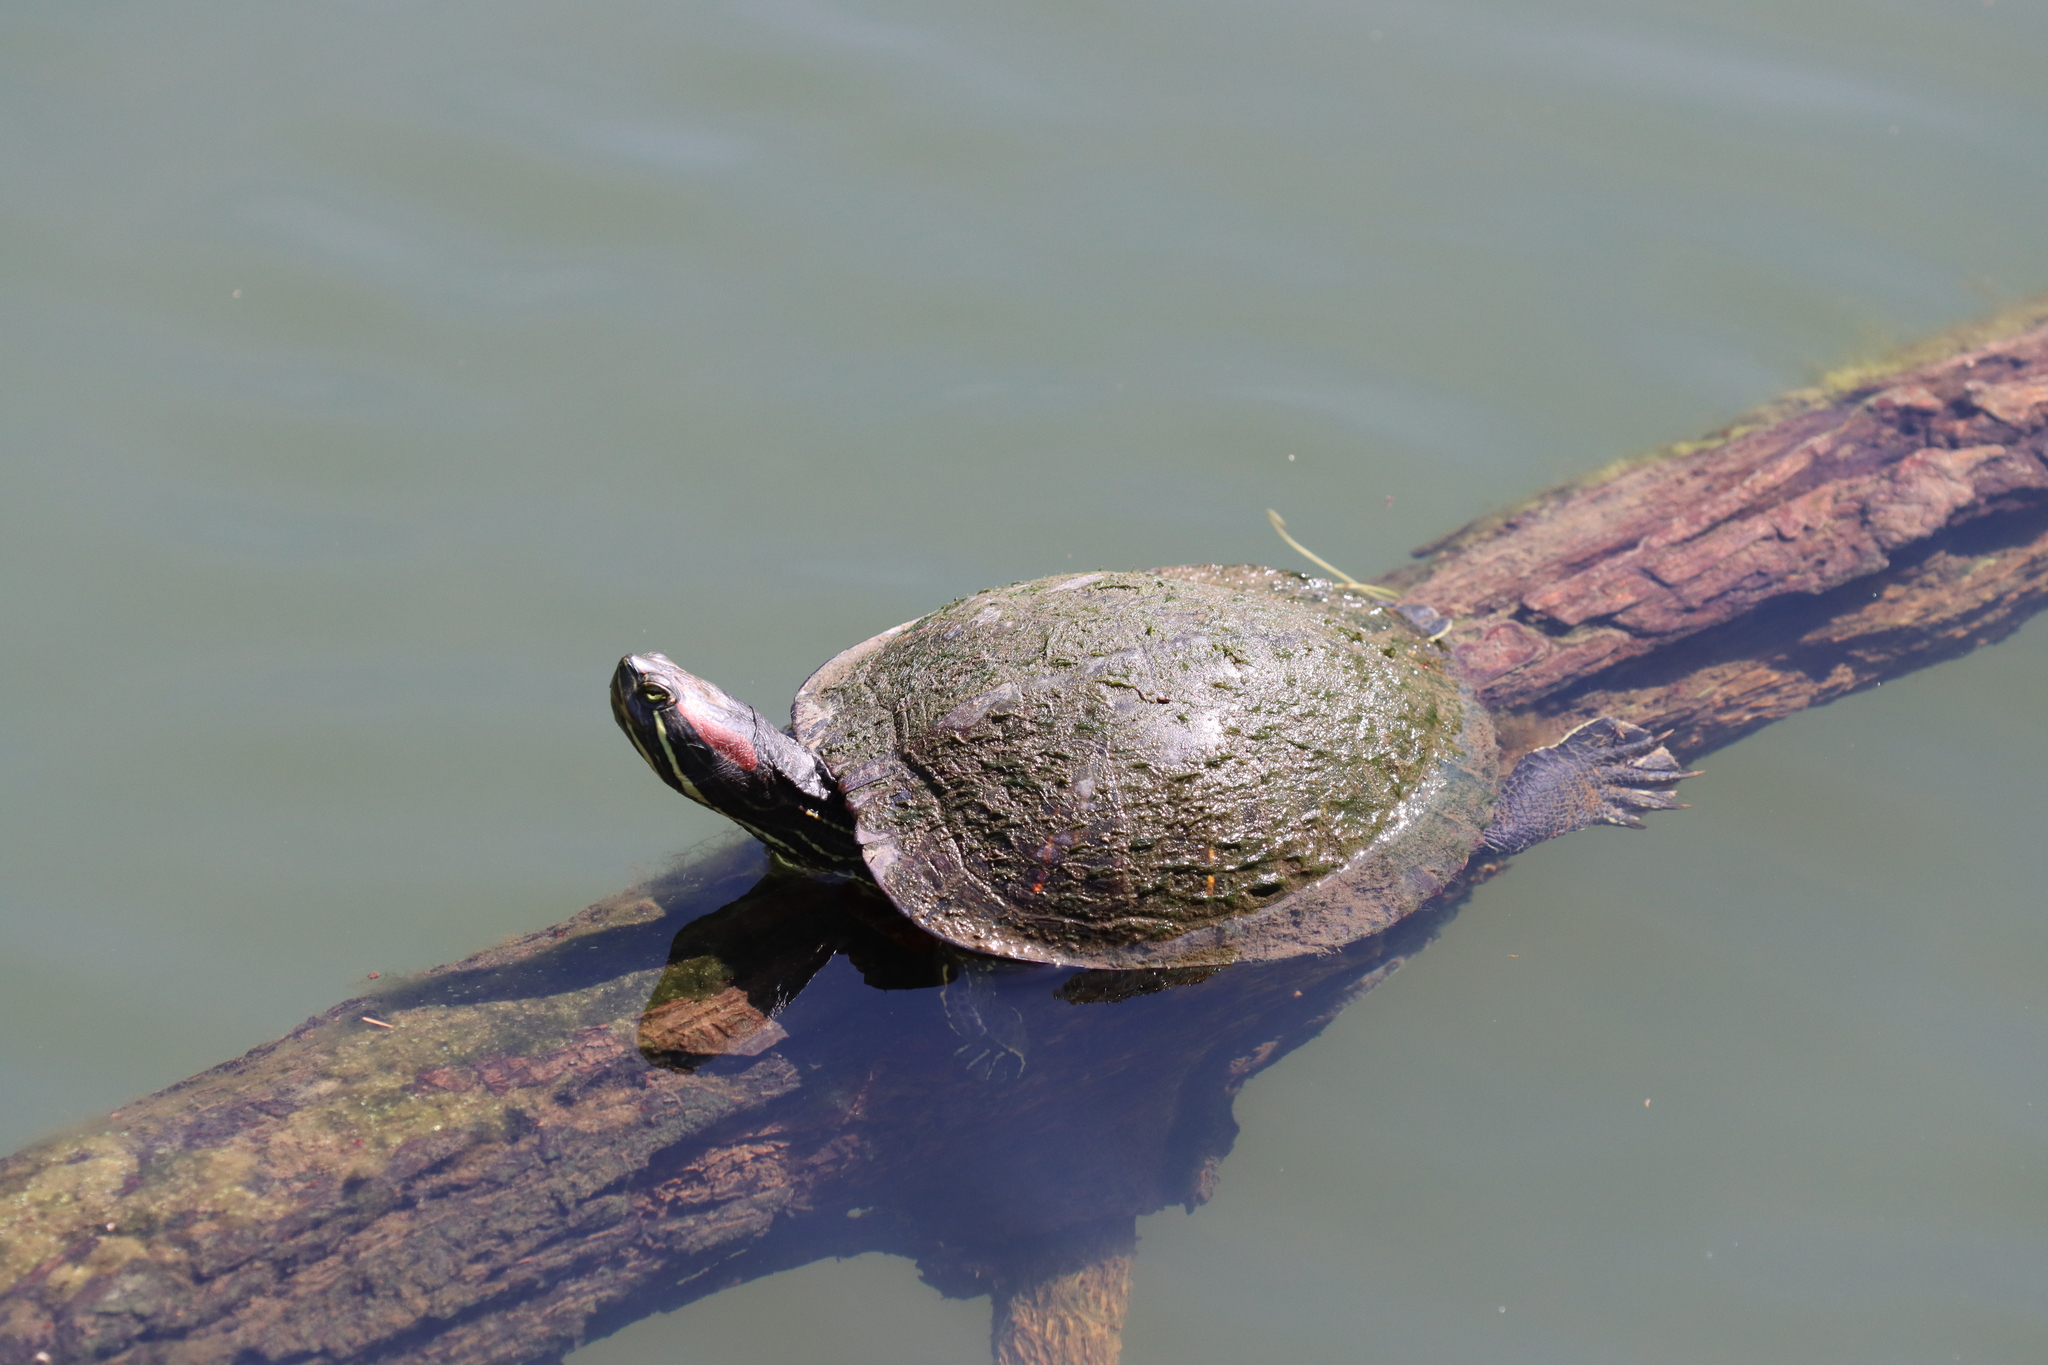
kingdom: Animalia
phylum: Chordata
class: Testudines
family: Emydidae
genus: Trachemys
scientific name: Trachemys scripta
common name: Slider
